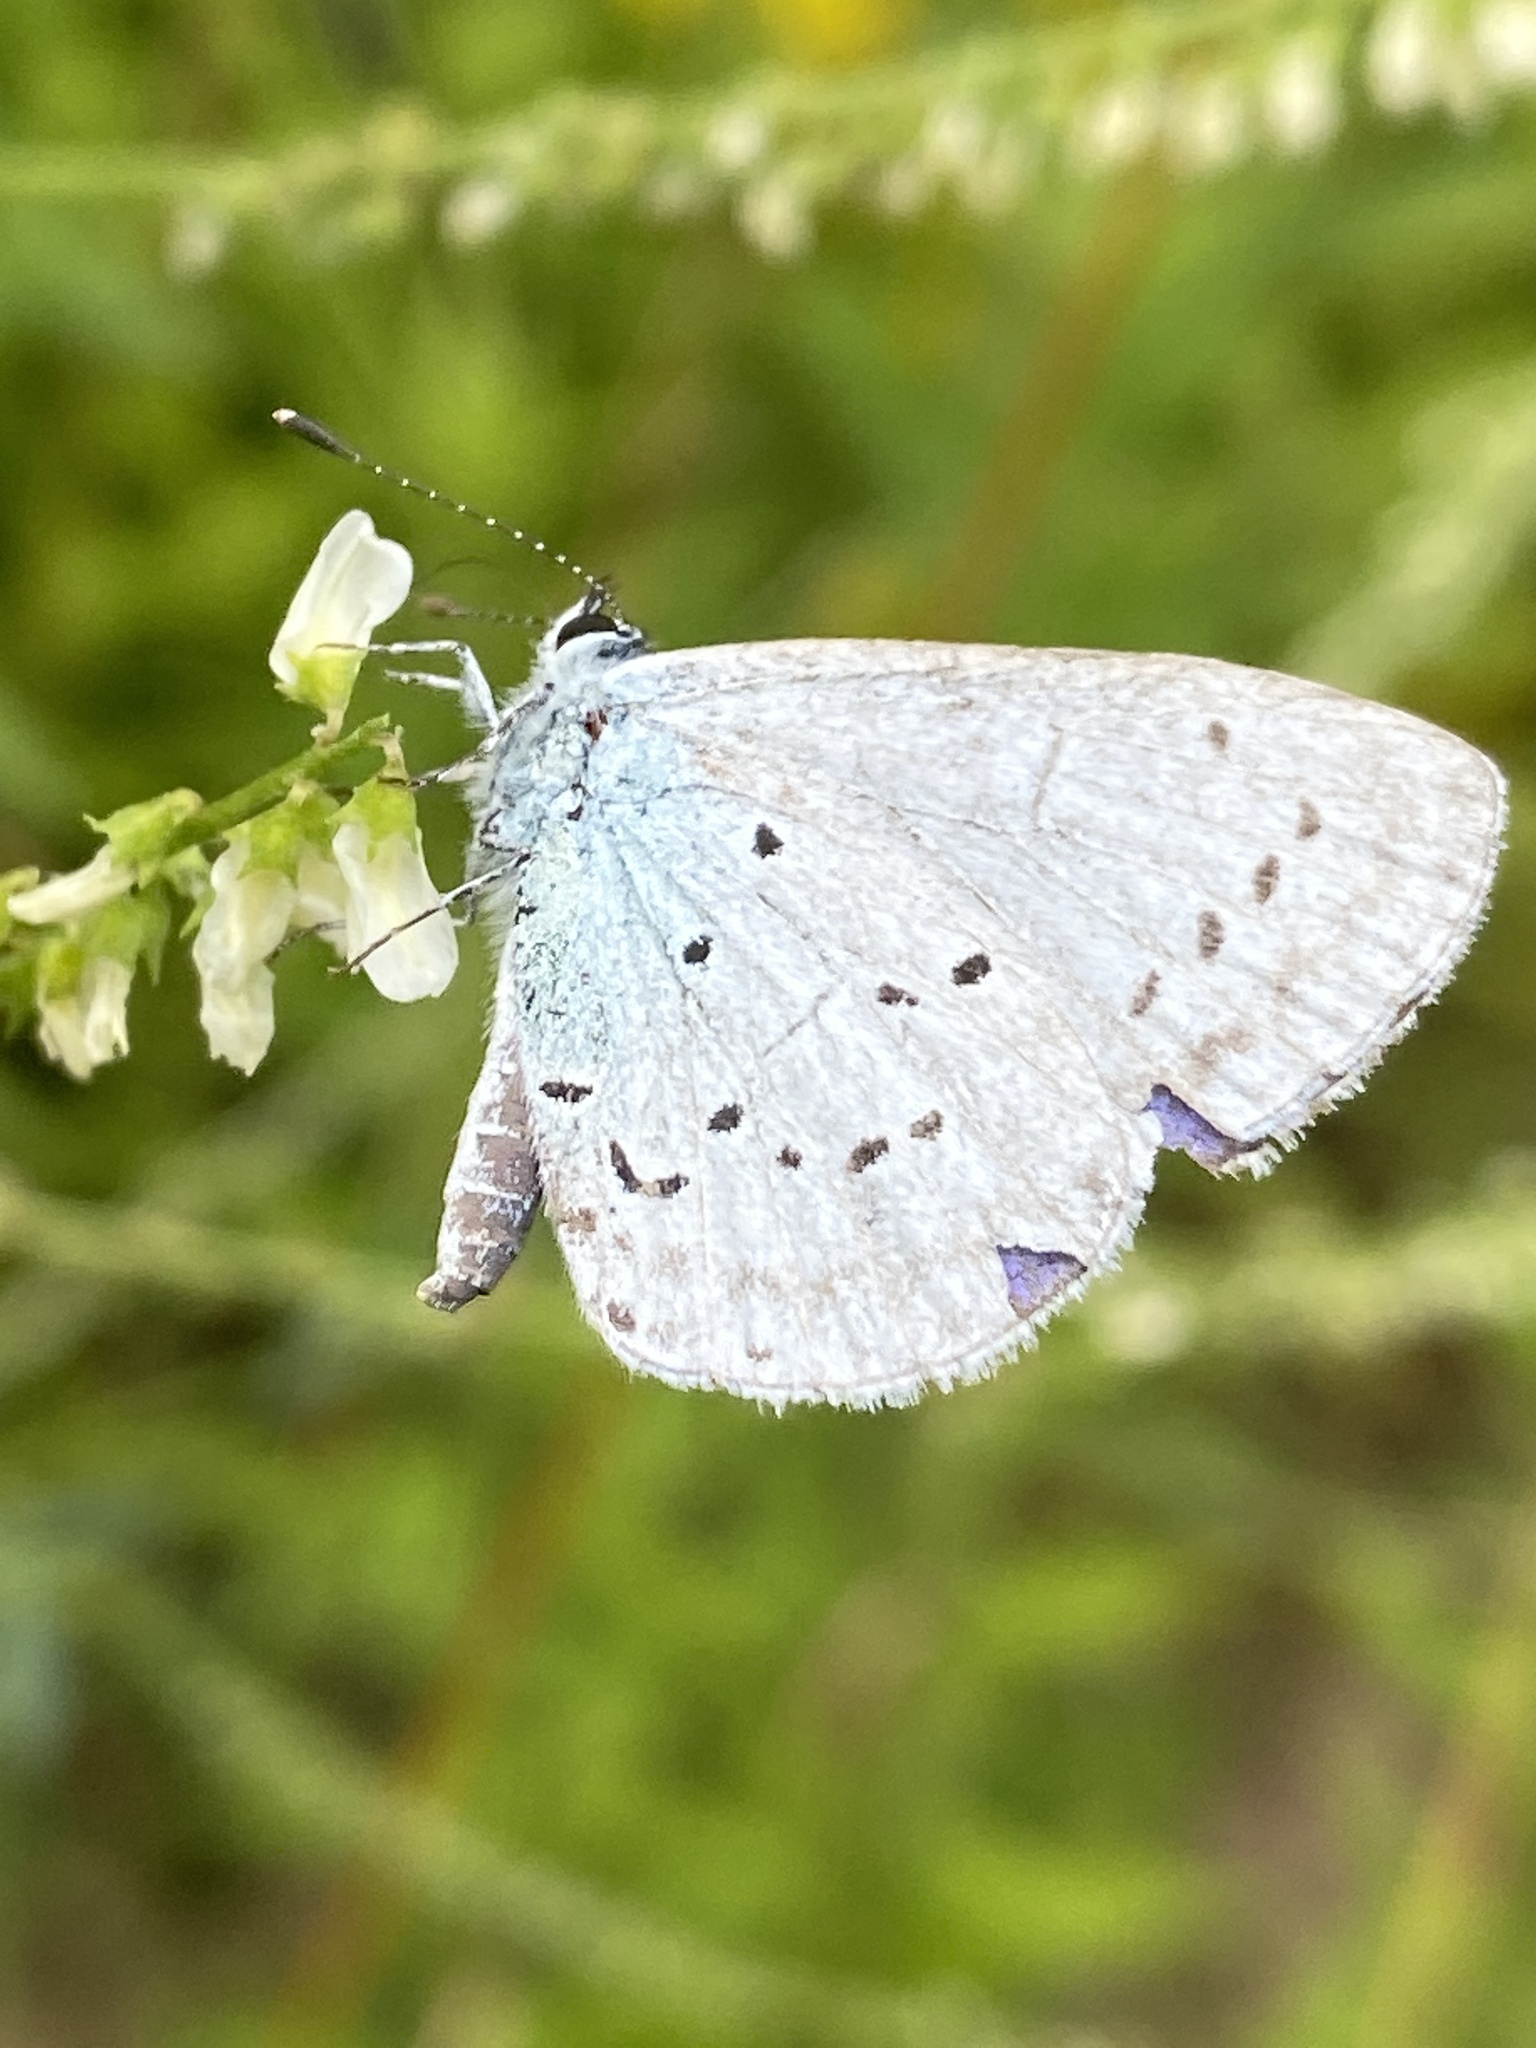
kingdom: Animalia
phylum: Arthropoda
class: Insecta
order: Lepidoptera
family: Lycaenidae
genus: Celastrina
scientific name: Celastrina argiolus
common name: Holly blue
